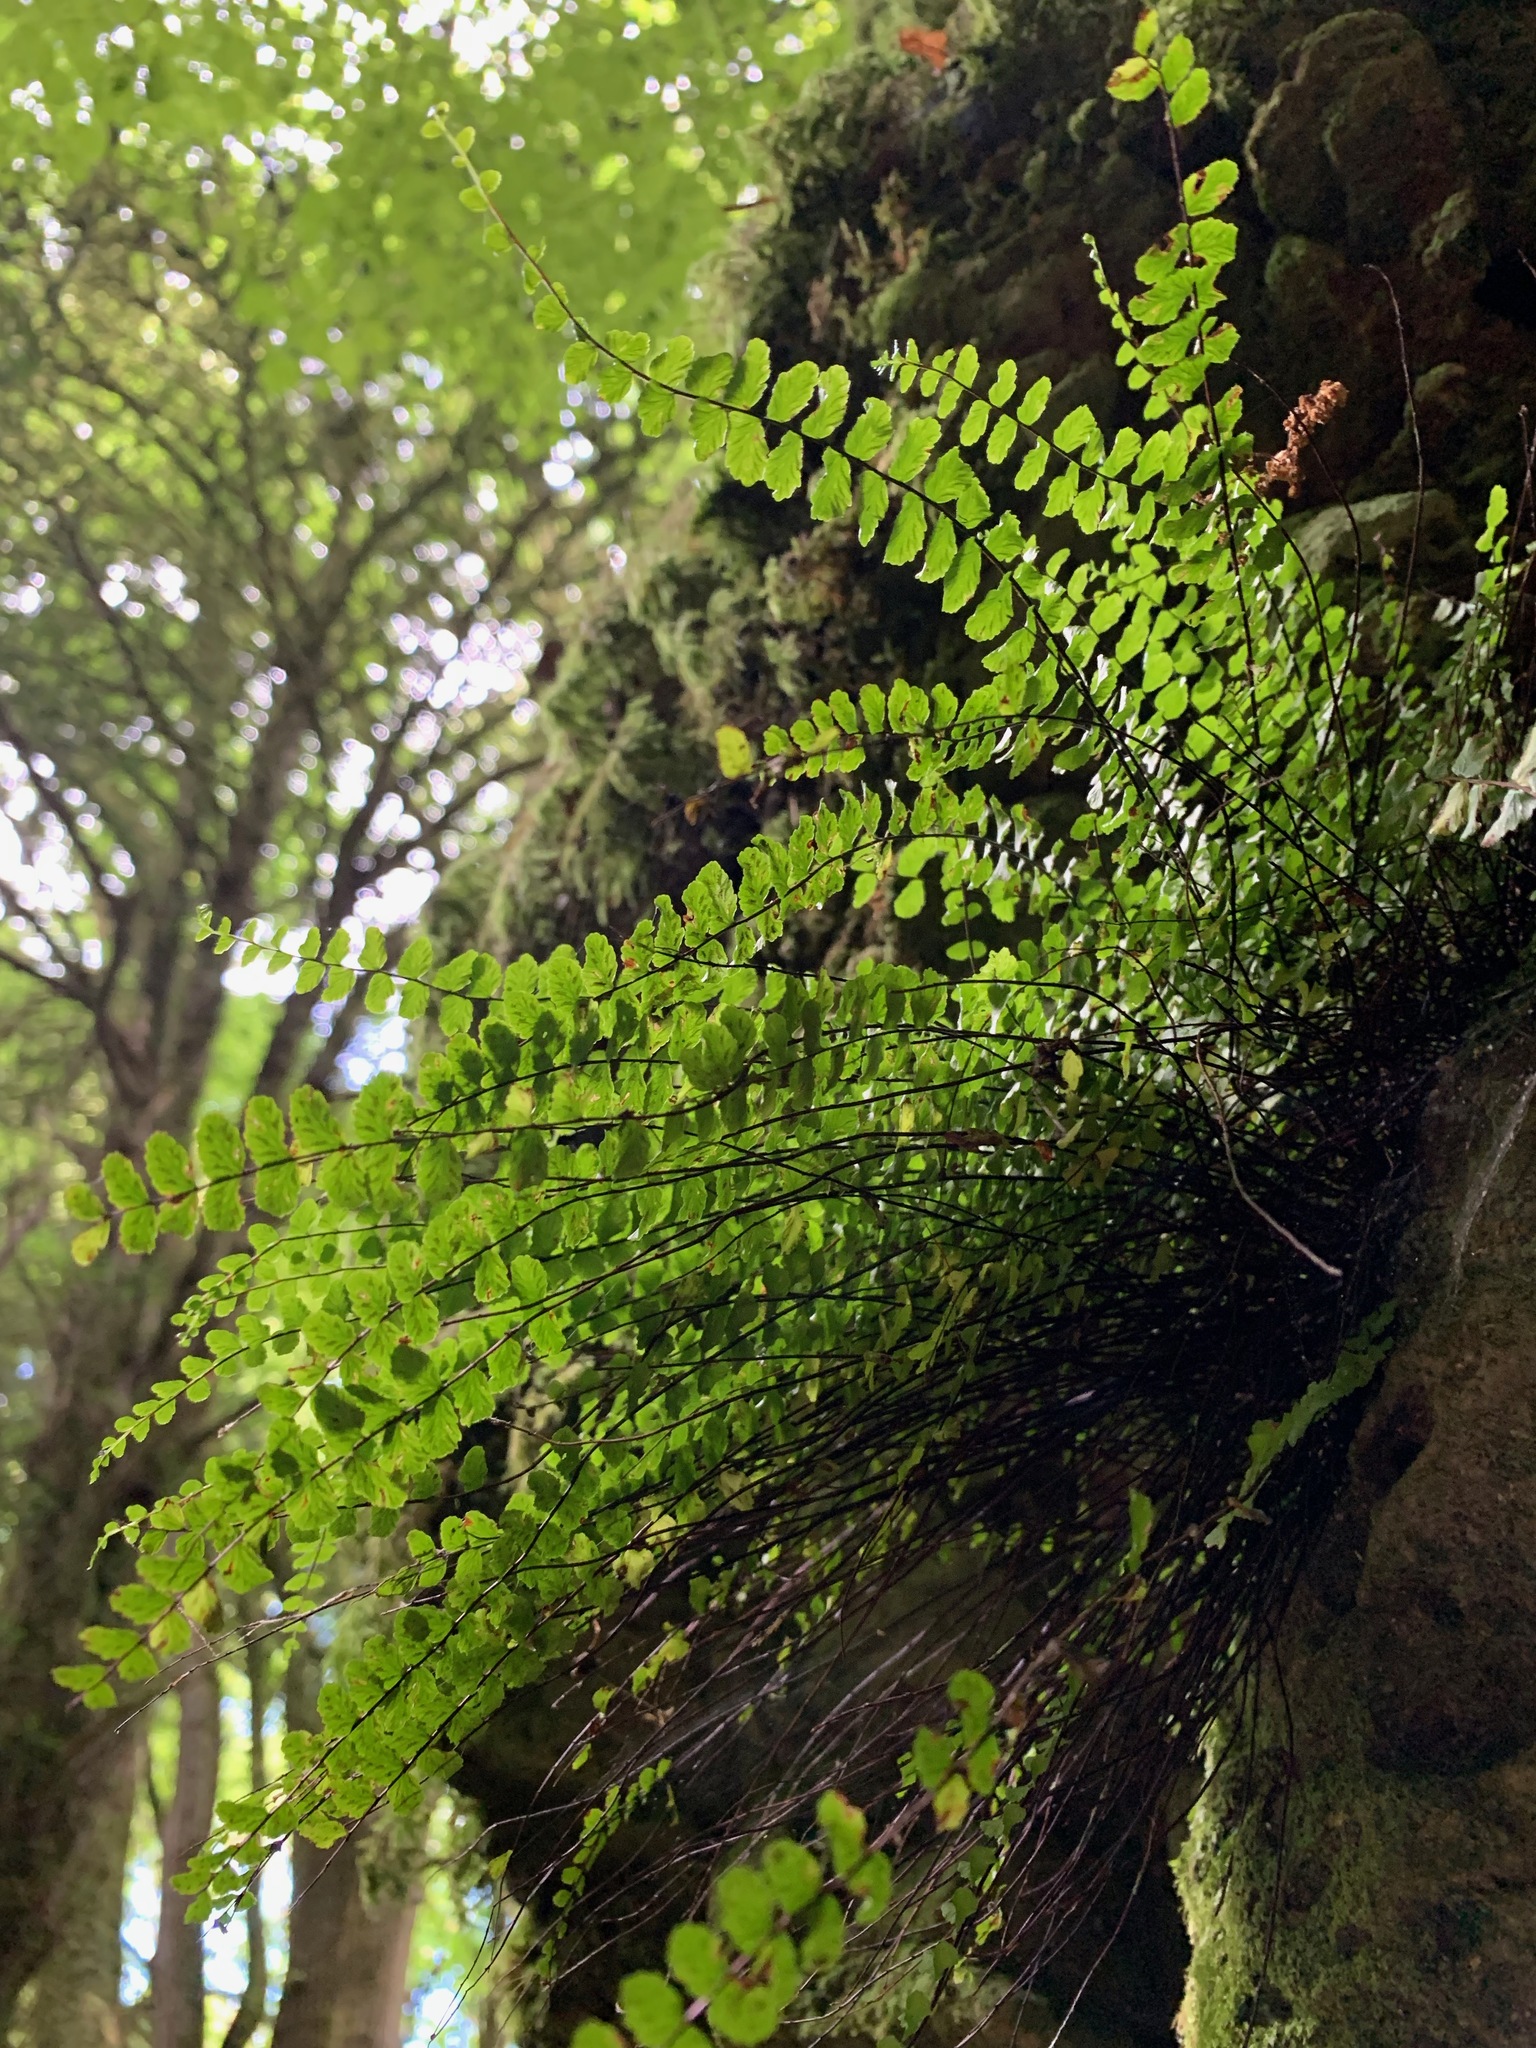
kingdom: Plantae
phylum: Tracheophyta
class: Polypodiopsida
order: Polypodiales
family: Aspleniaceae
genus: Asplenium
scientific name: Asplenium trichomanes
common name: Maidenhair spleenwort
